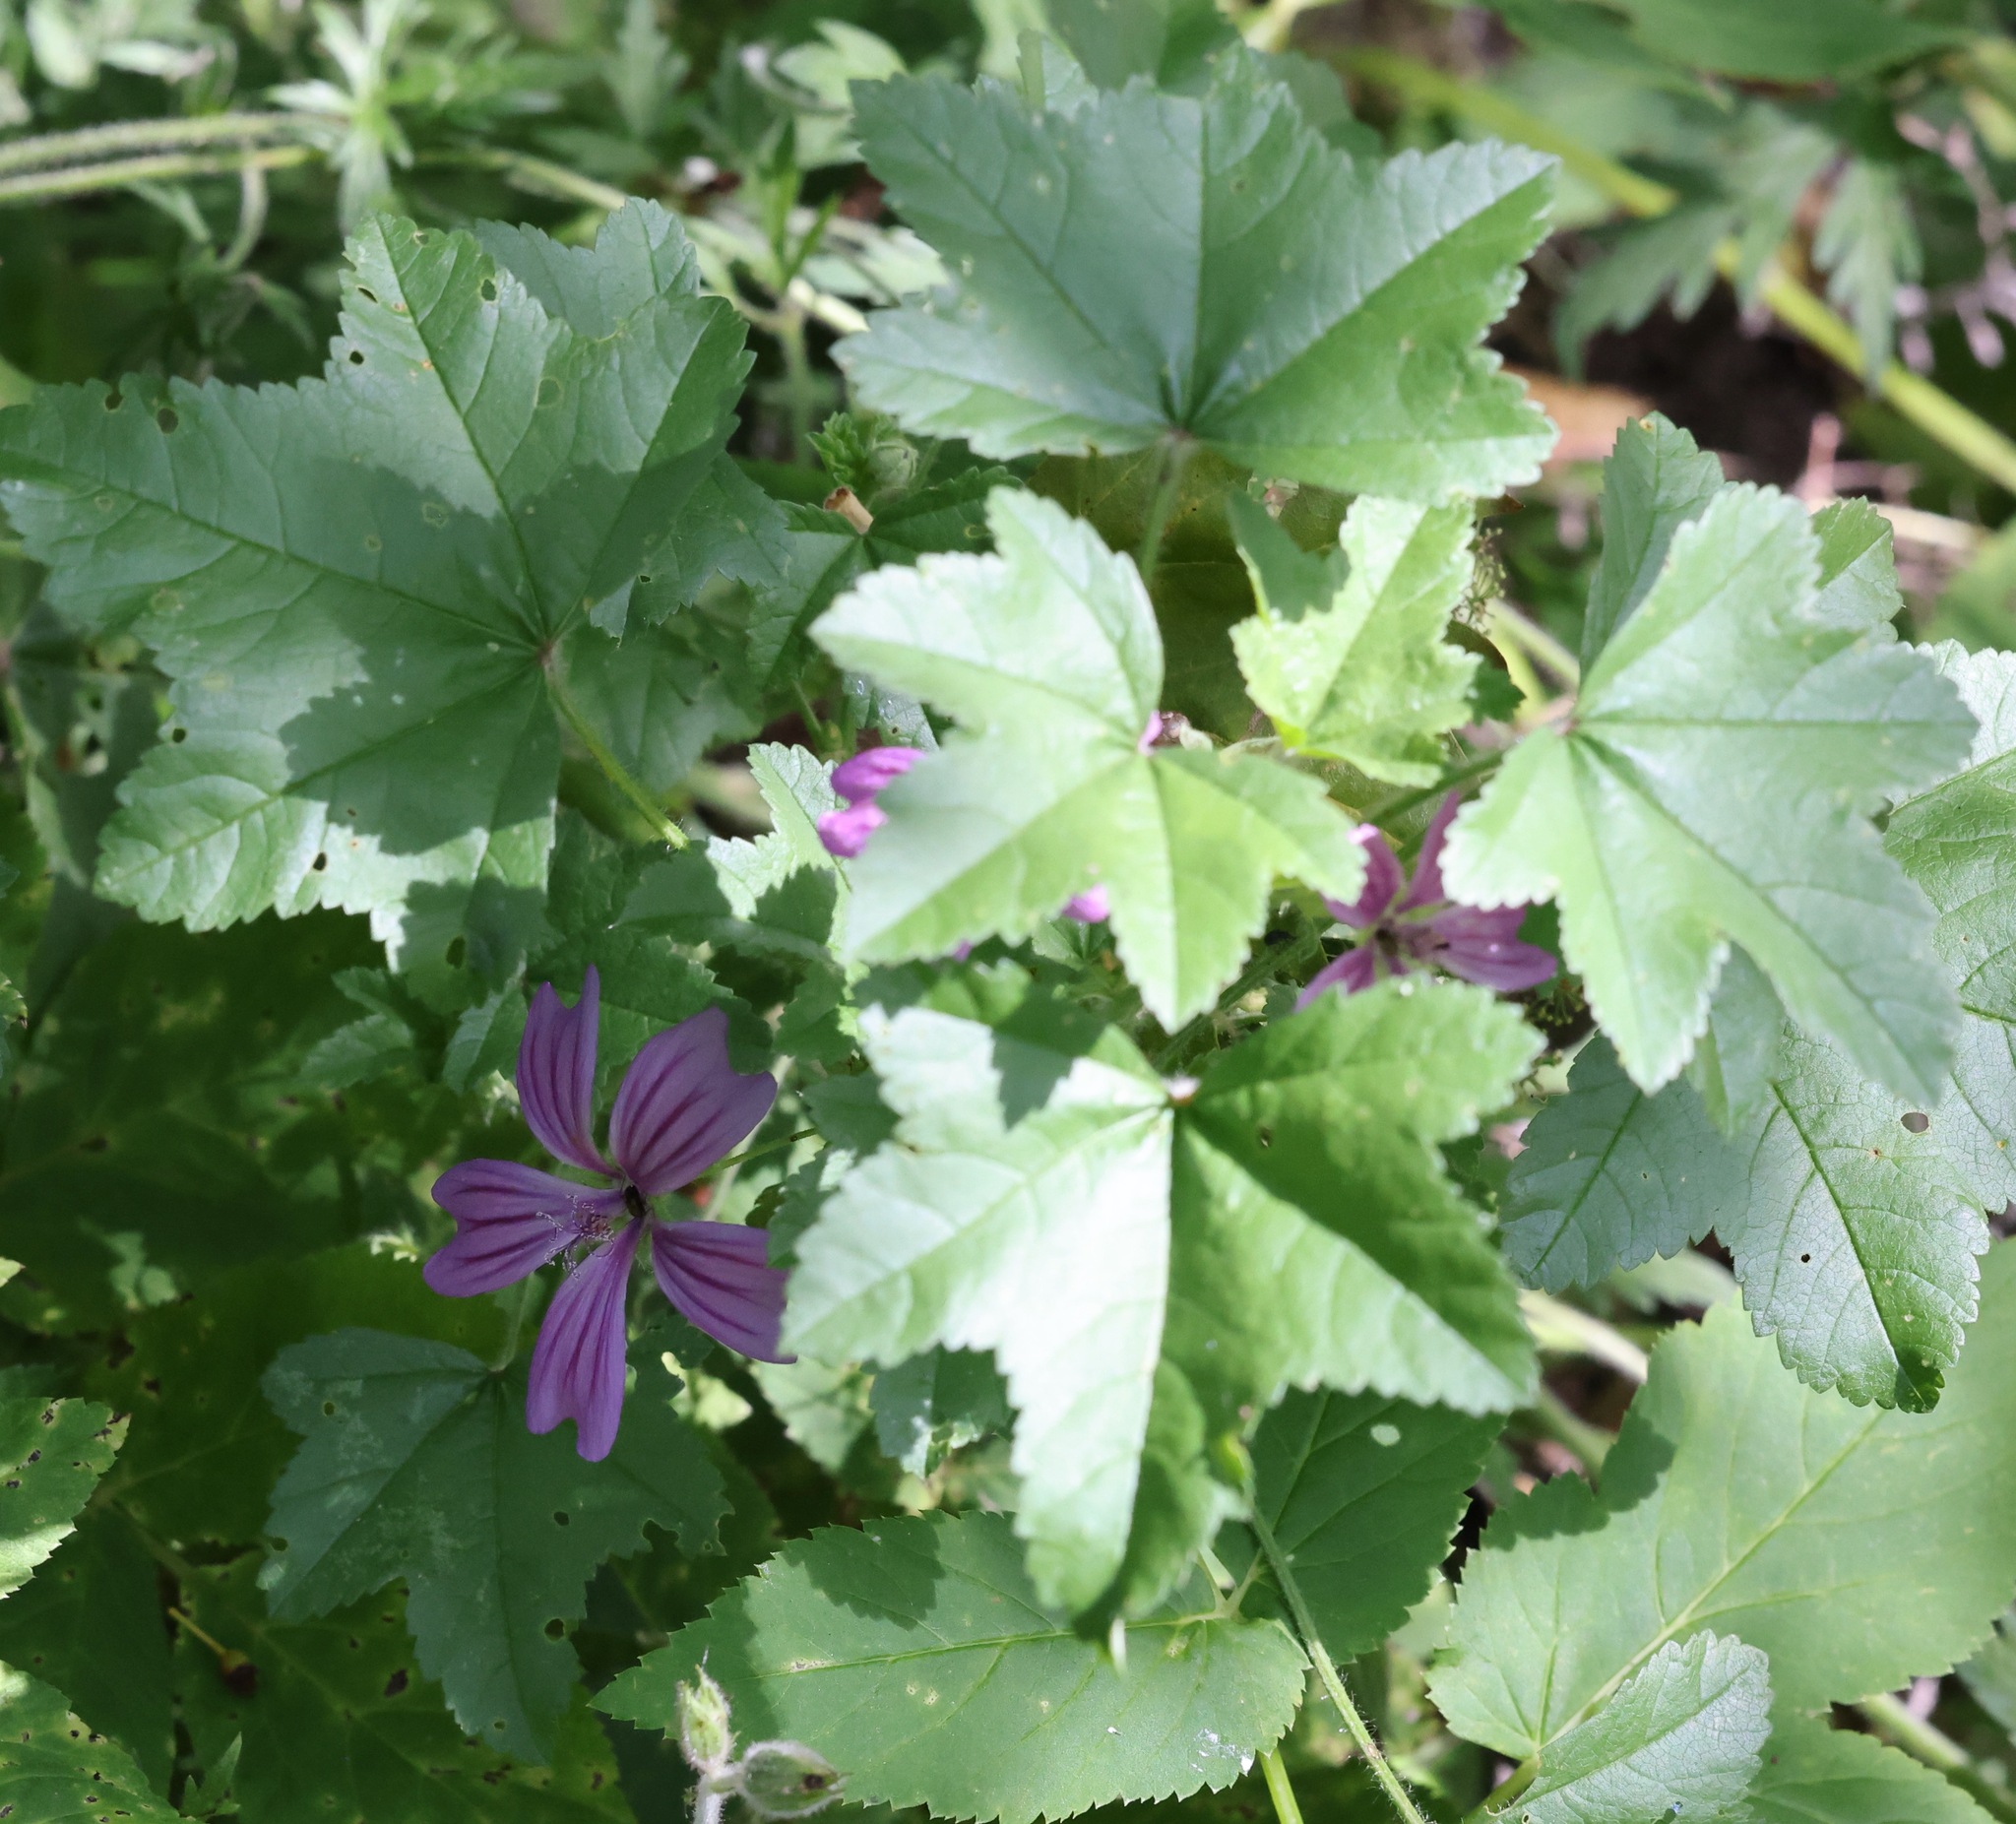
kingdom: Plantae
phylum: Tracheophyta
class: Magnoliopsida
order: Malvales
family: Malvaceae
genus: Malva
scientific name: Malva sylvestris
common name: Common mallow
